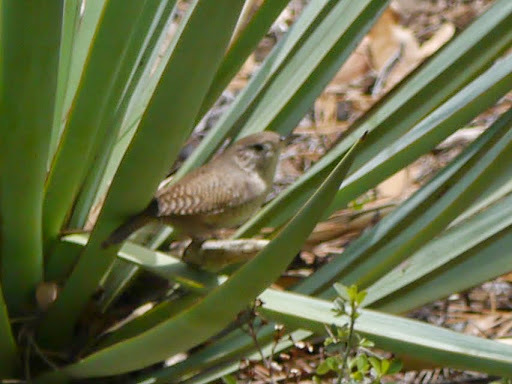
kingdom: Animalia
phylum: Chordata
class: Aves
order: Passeriformes
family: Troglodytidae
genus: Troglodytes
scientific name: Troglodytes aedon
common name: House wren
